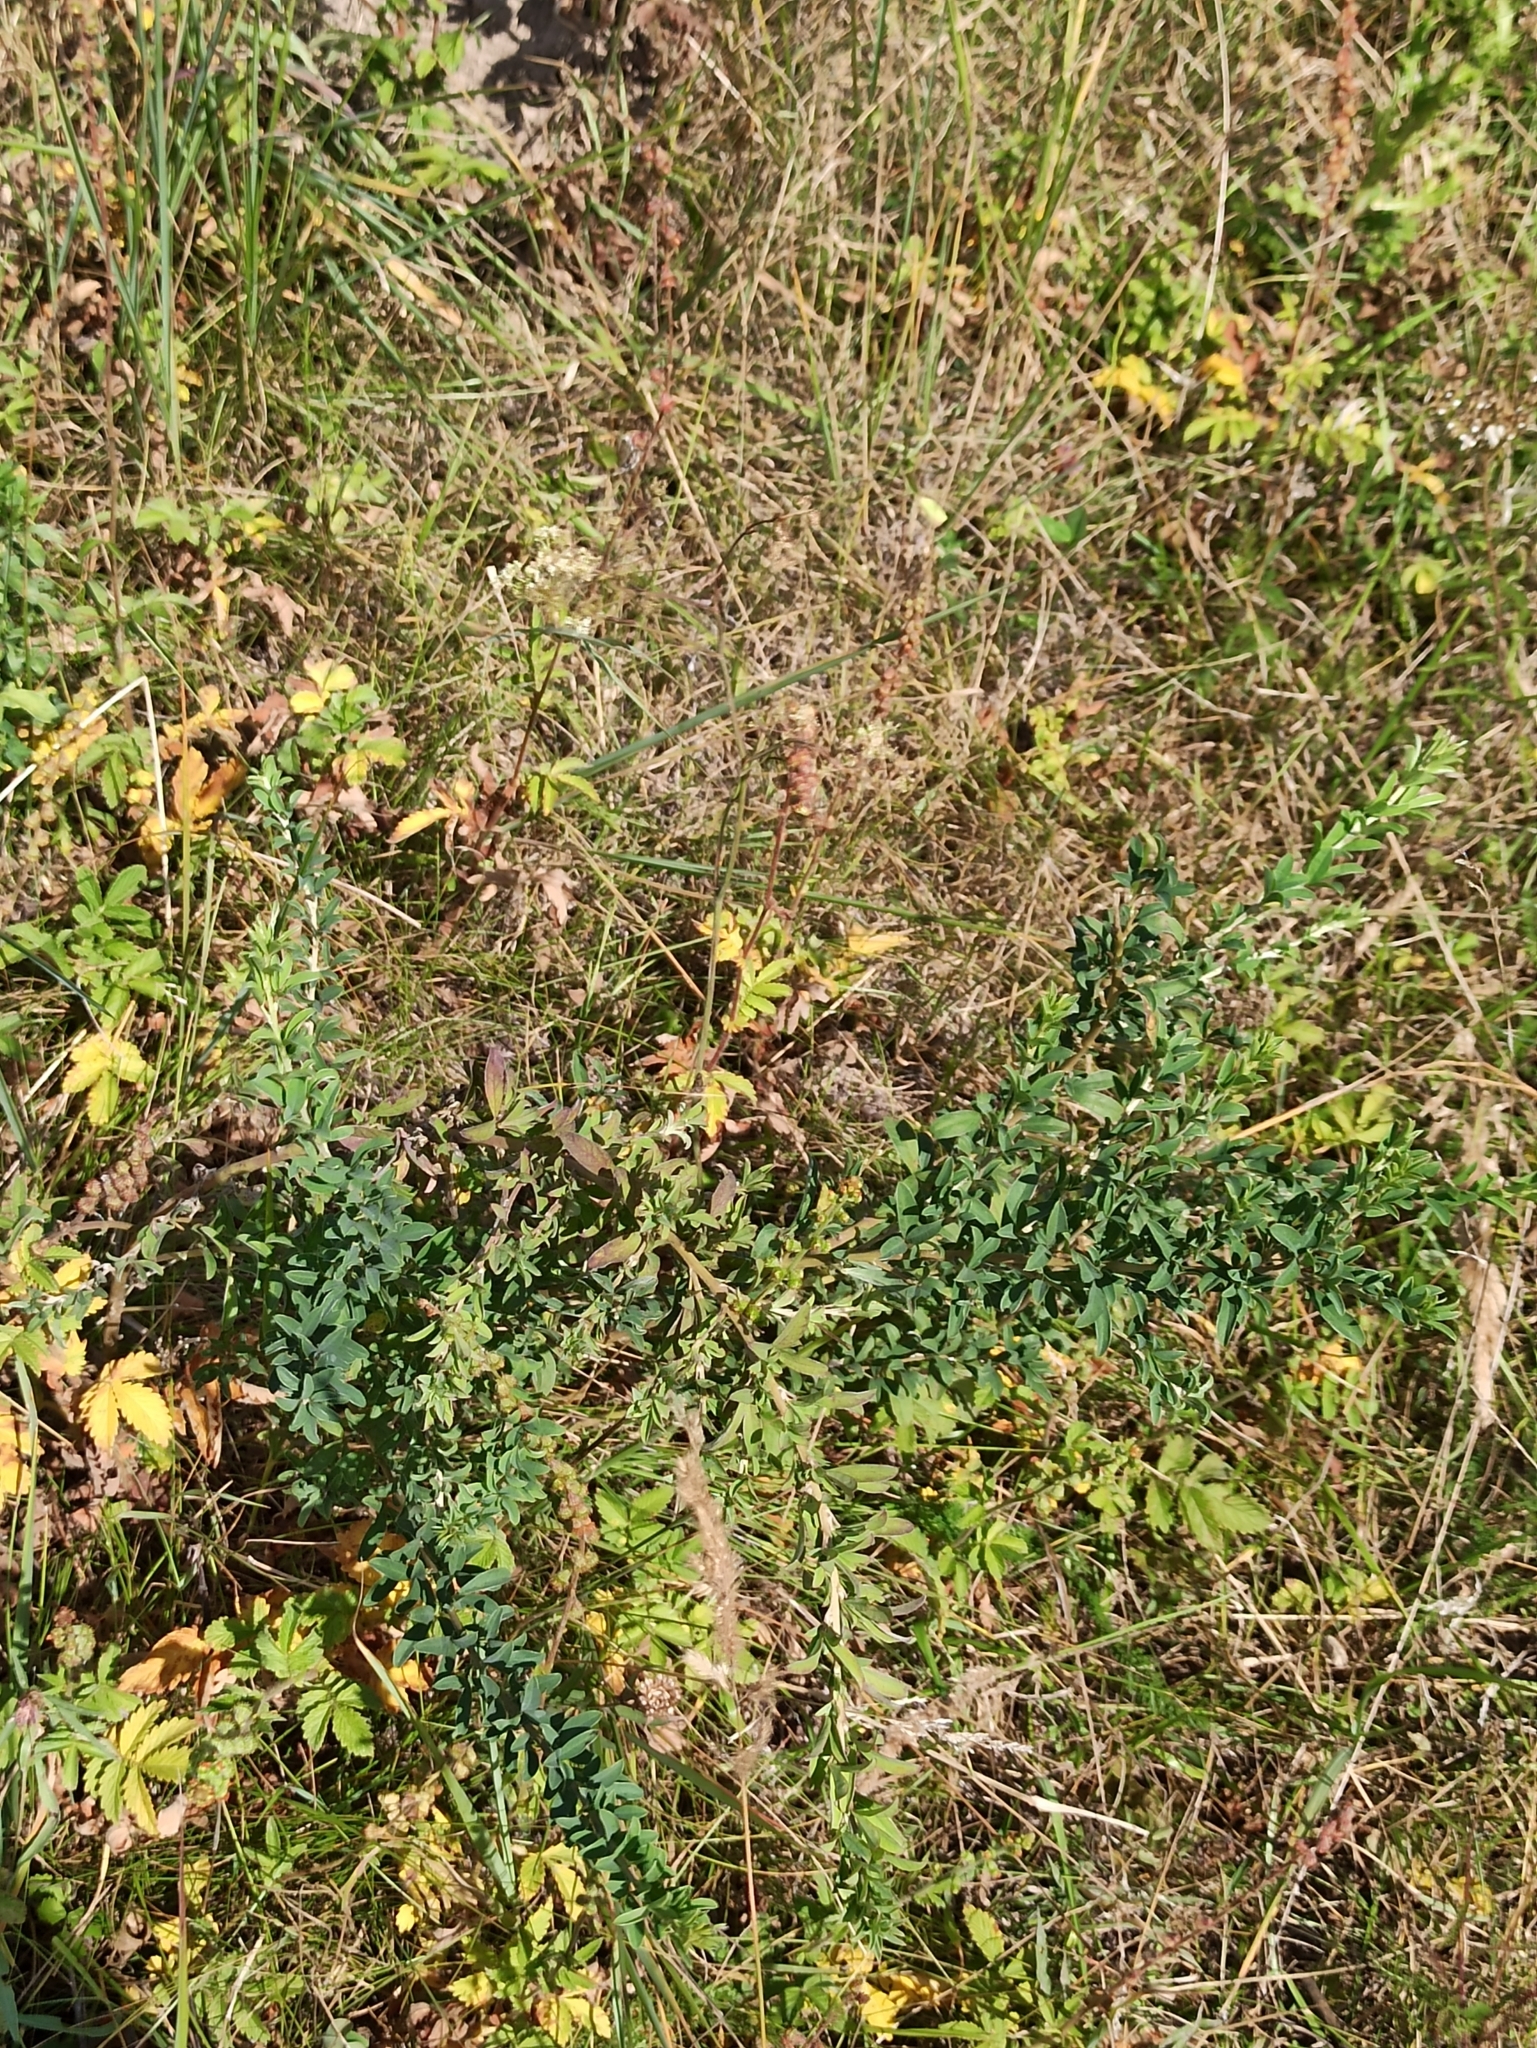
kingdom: Plantae
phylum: Tracheophyta
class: Magnoliopsida
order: Fabales
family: Fabaceae
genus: Chamaecytisus
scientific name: Chamaecytisus ruthenicus
